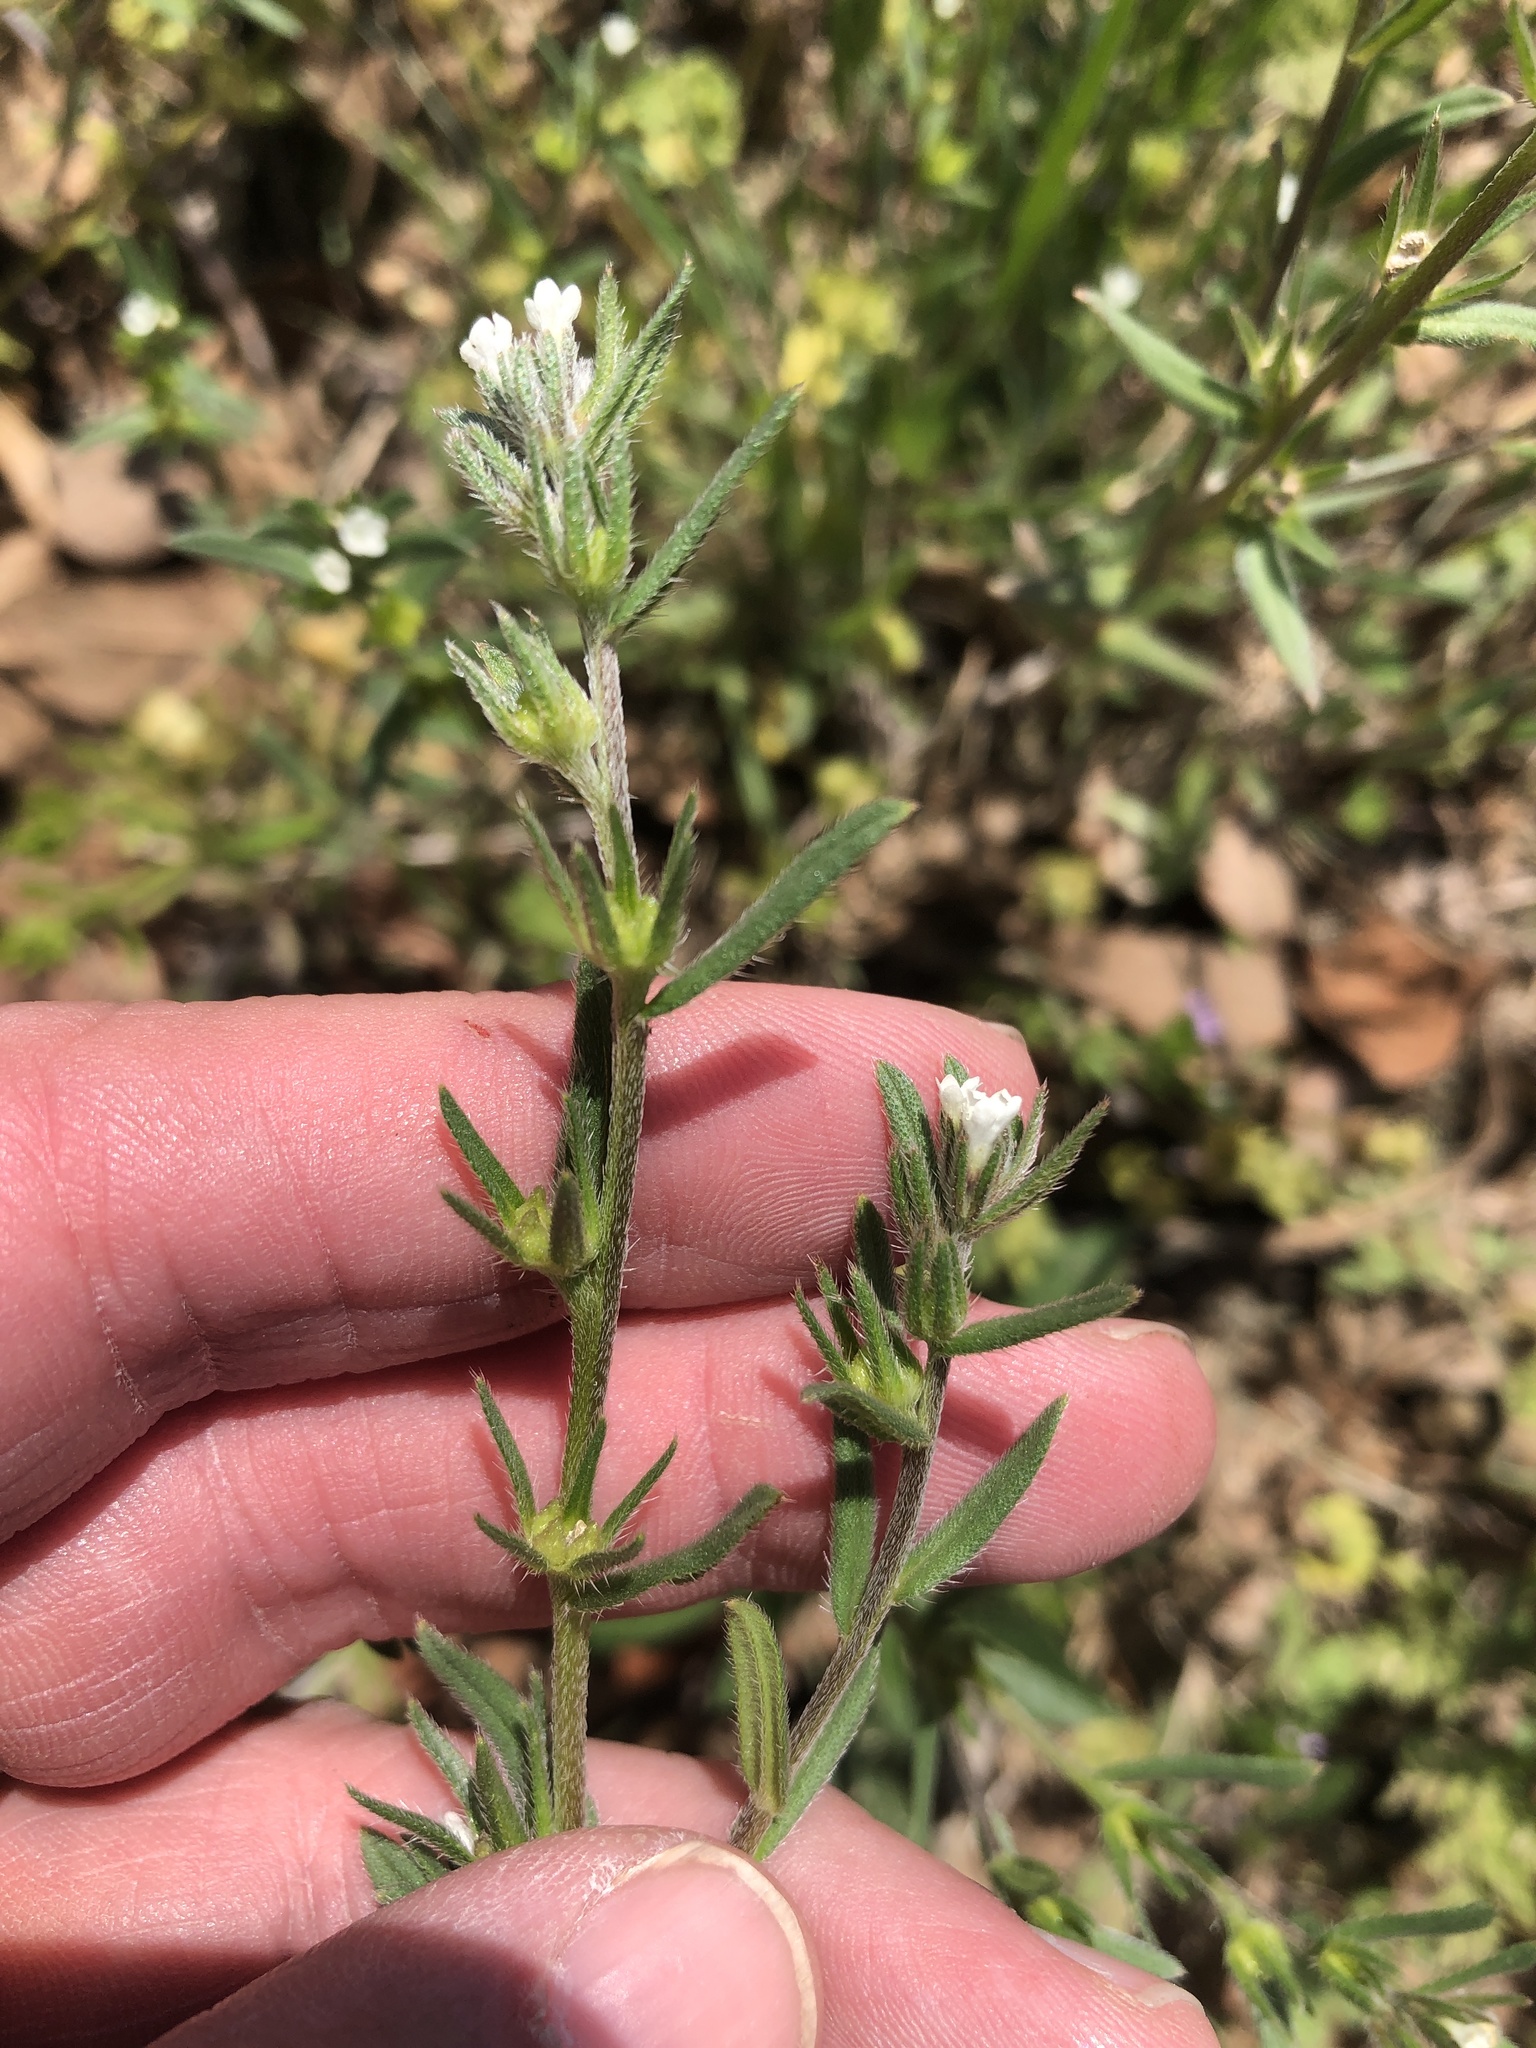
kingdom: Plantae
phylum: Tracheophyta
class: Magnoliopsida
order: Boraginales
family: Boraginaceae
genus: Buglossoides
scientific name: Buglossoides arvensis
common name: Corn gromwell
